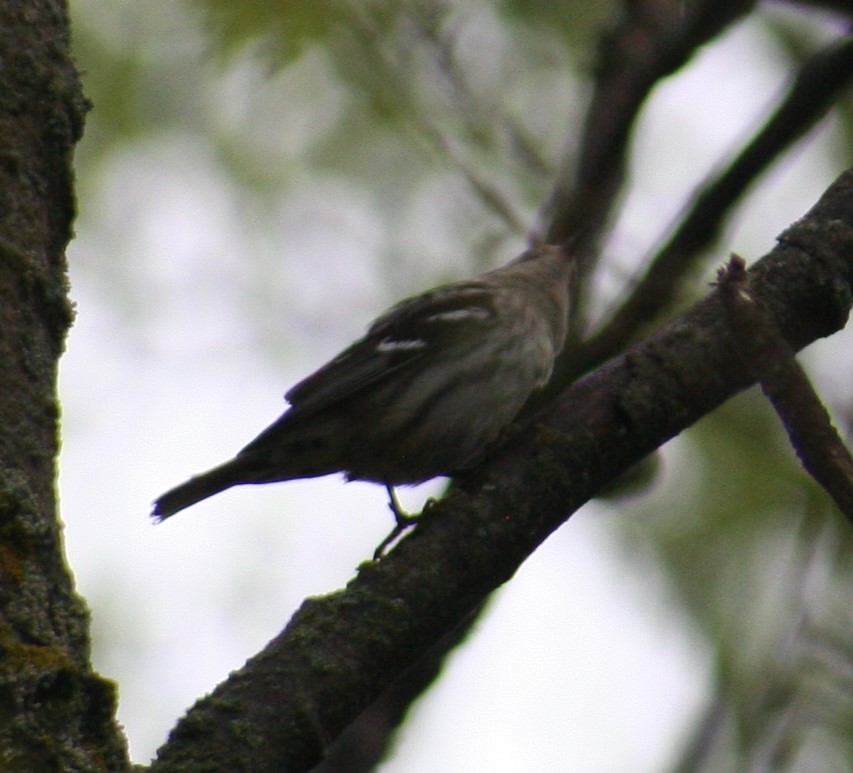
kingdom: Animalia
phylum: Chordata
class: Aves
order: Passeriformes
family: Parulidae
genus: Mniotilta
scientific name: Mniotilta varia
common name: Black-and-white warbler
